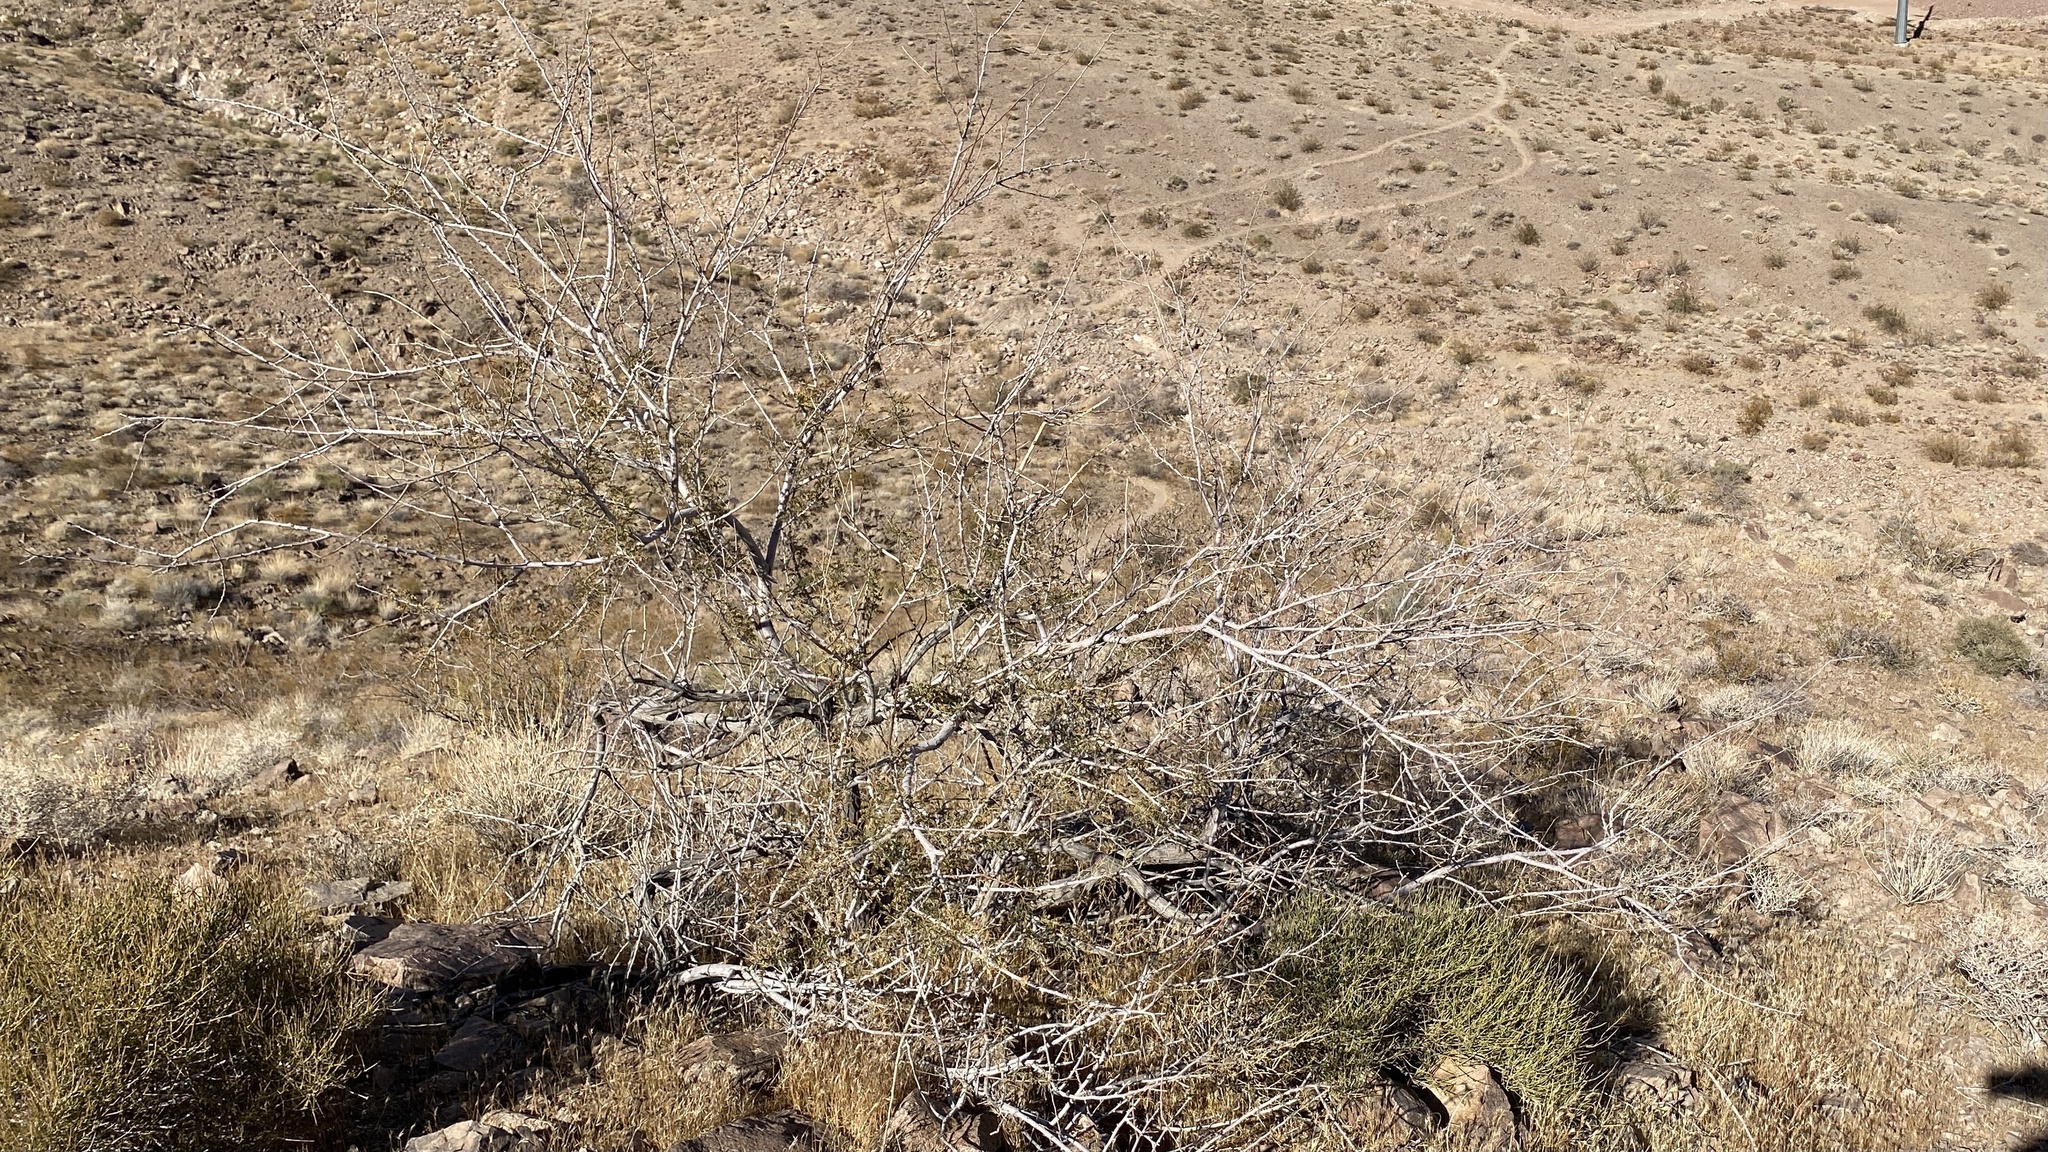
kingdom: Plantae
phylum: Tracheophyta
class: Magnoliopsida
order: Fabales
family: Fabaceae
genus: Senegalia
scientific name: Senegalia greggii
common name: Texas-mimosa
